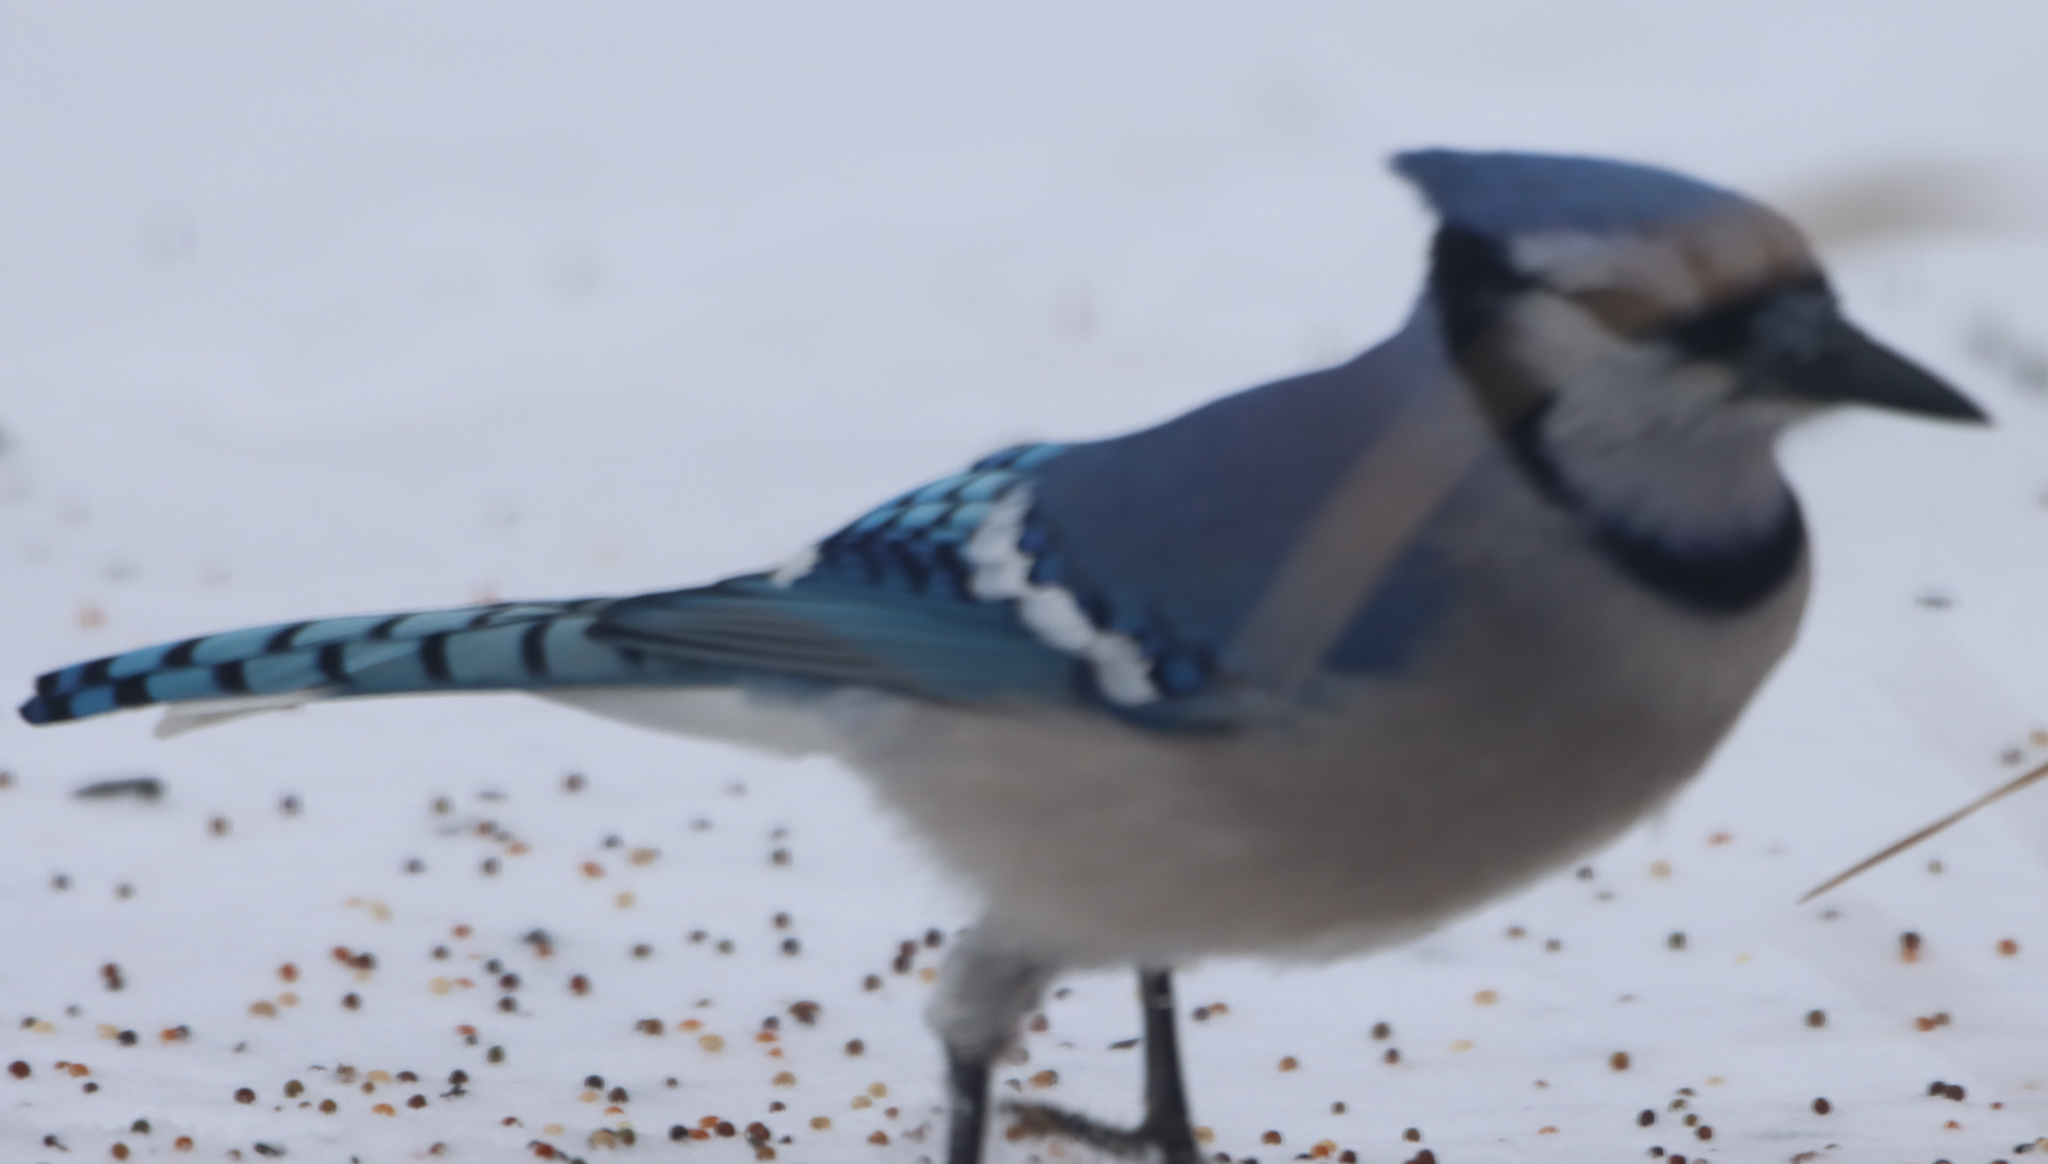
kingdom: Animalia
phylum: Chordata
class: Aves
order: Passeriformes
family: Corvidae
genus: Cyanocitta
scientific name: Cyanocitta cristata
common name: Blue jay
